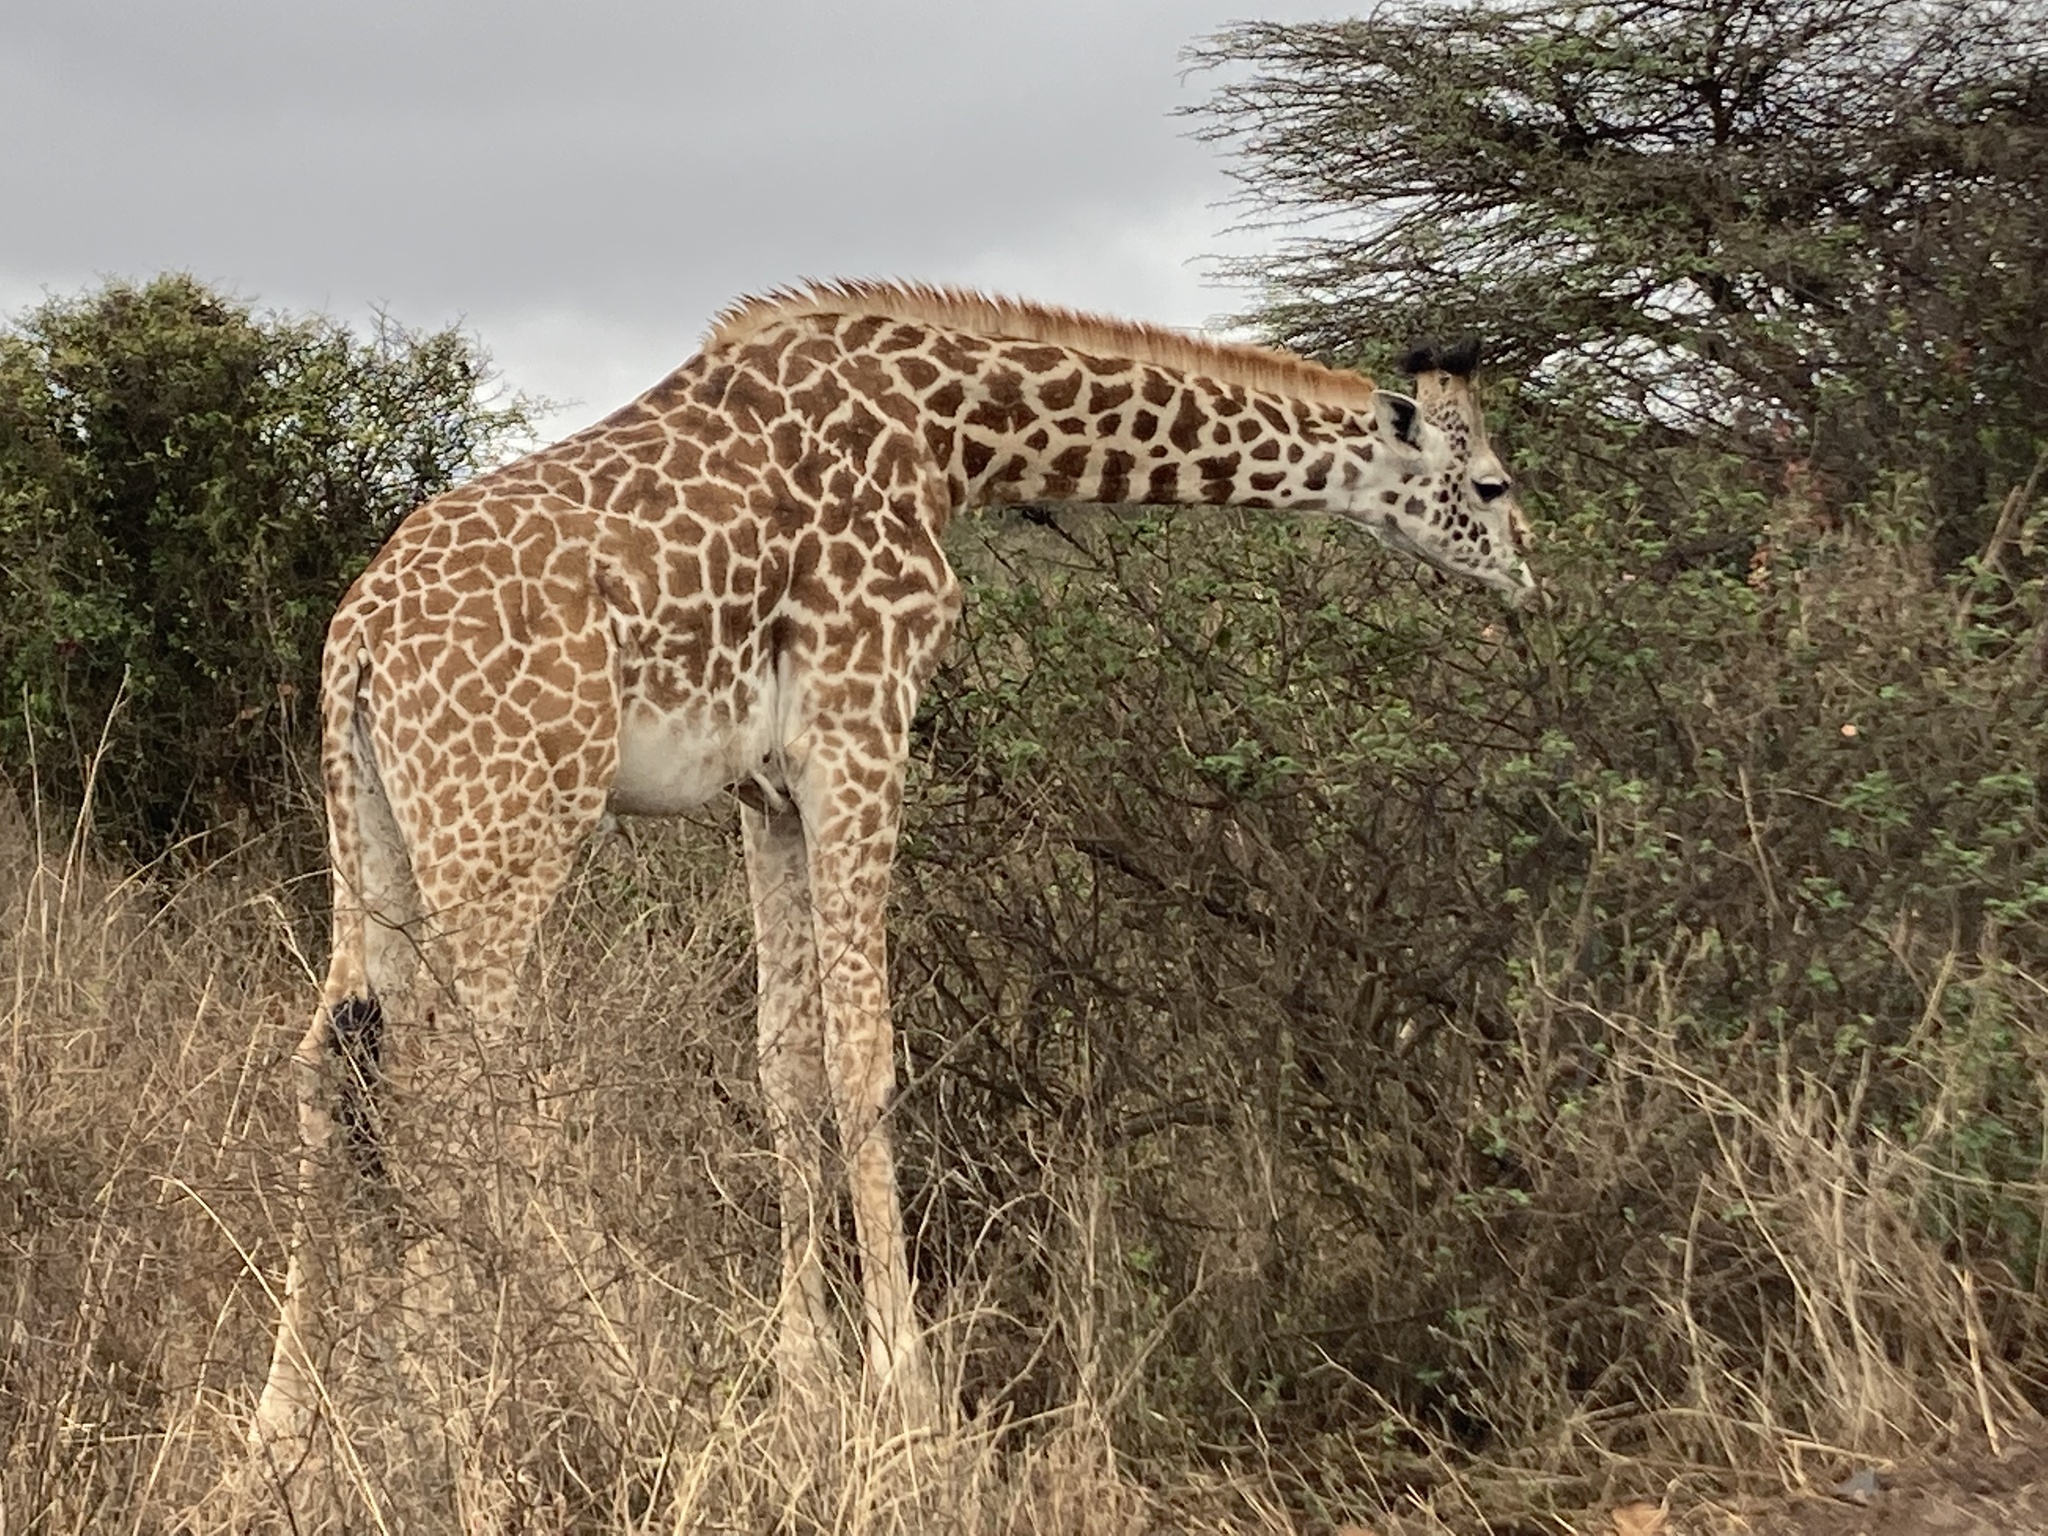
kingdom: Animalia
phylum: Chordata
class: Mammalia
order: Artiodactyla
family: Giraffidae
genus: Giraffa
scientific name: Giraffa tippelskirchi
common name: Masai giraffe
